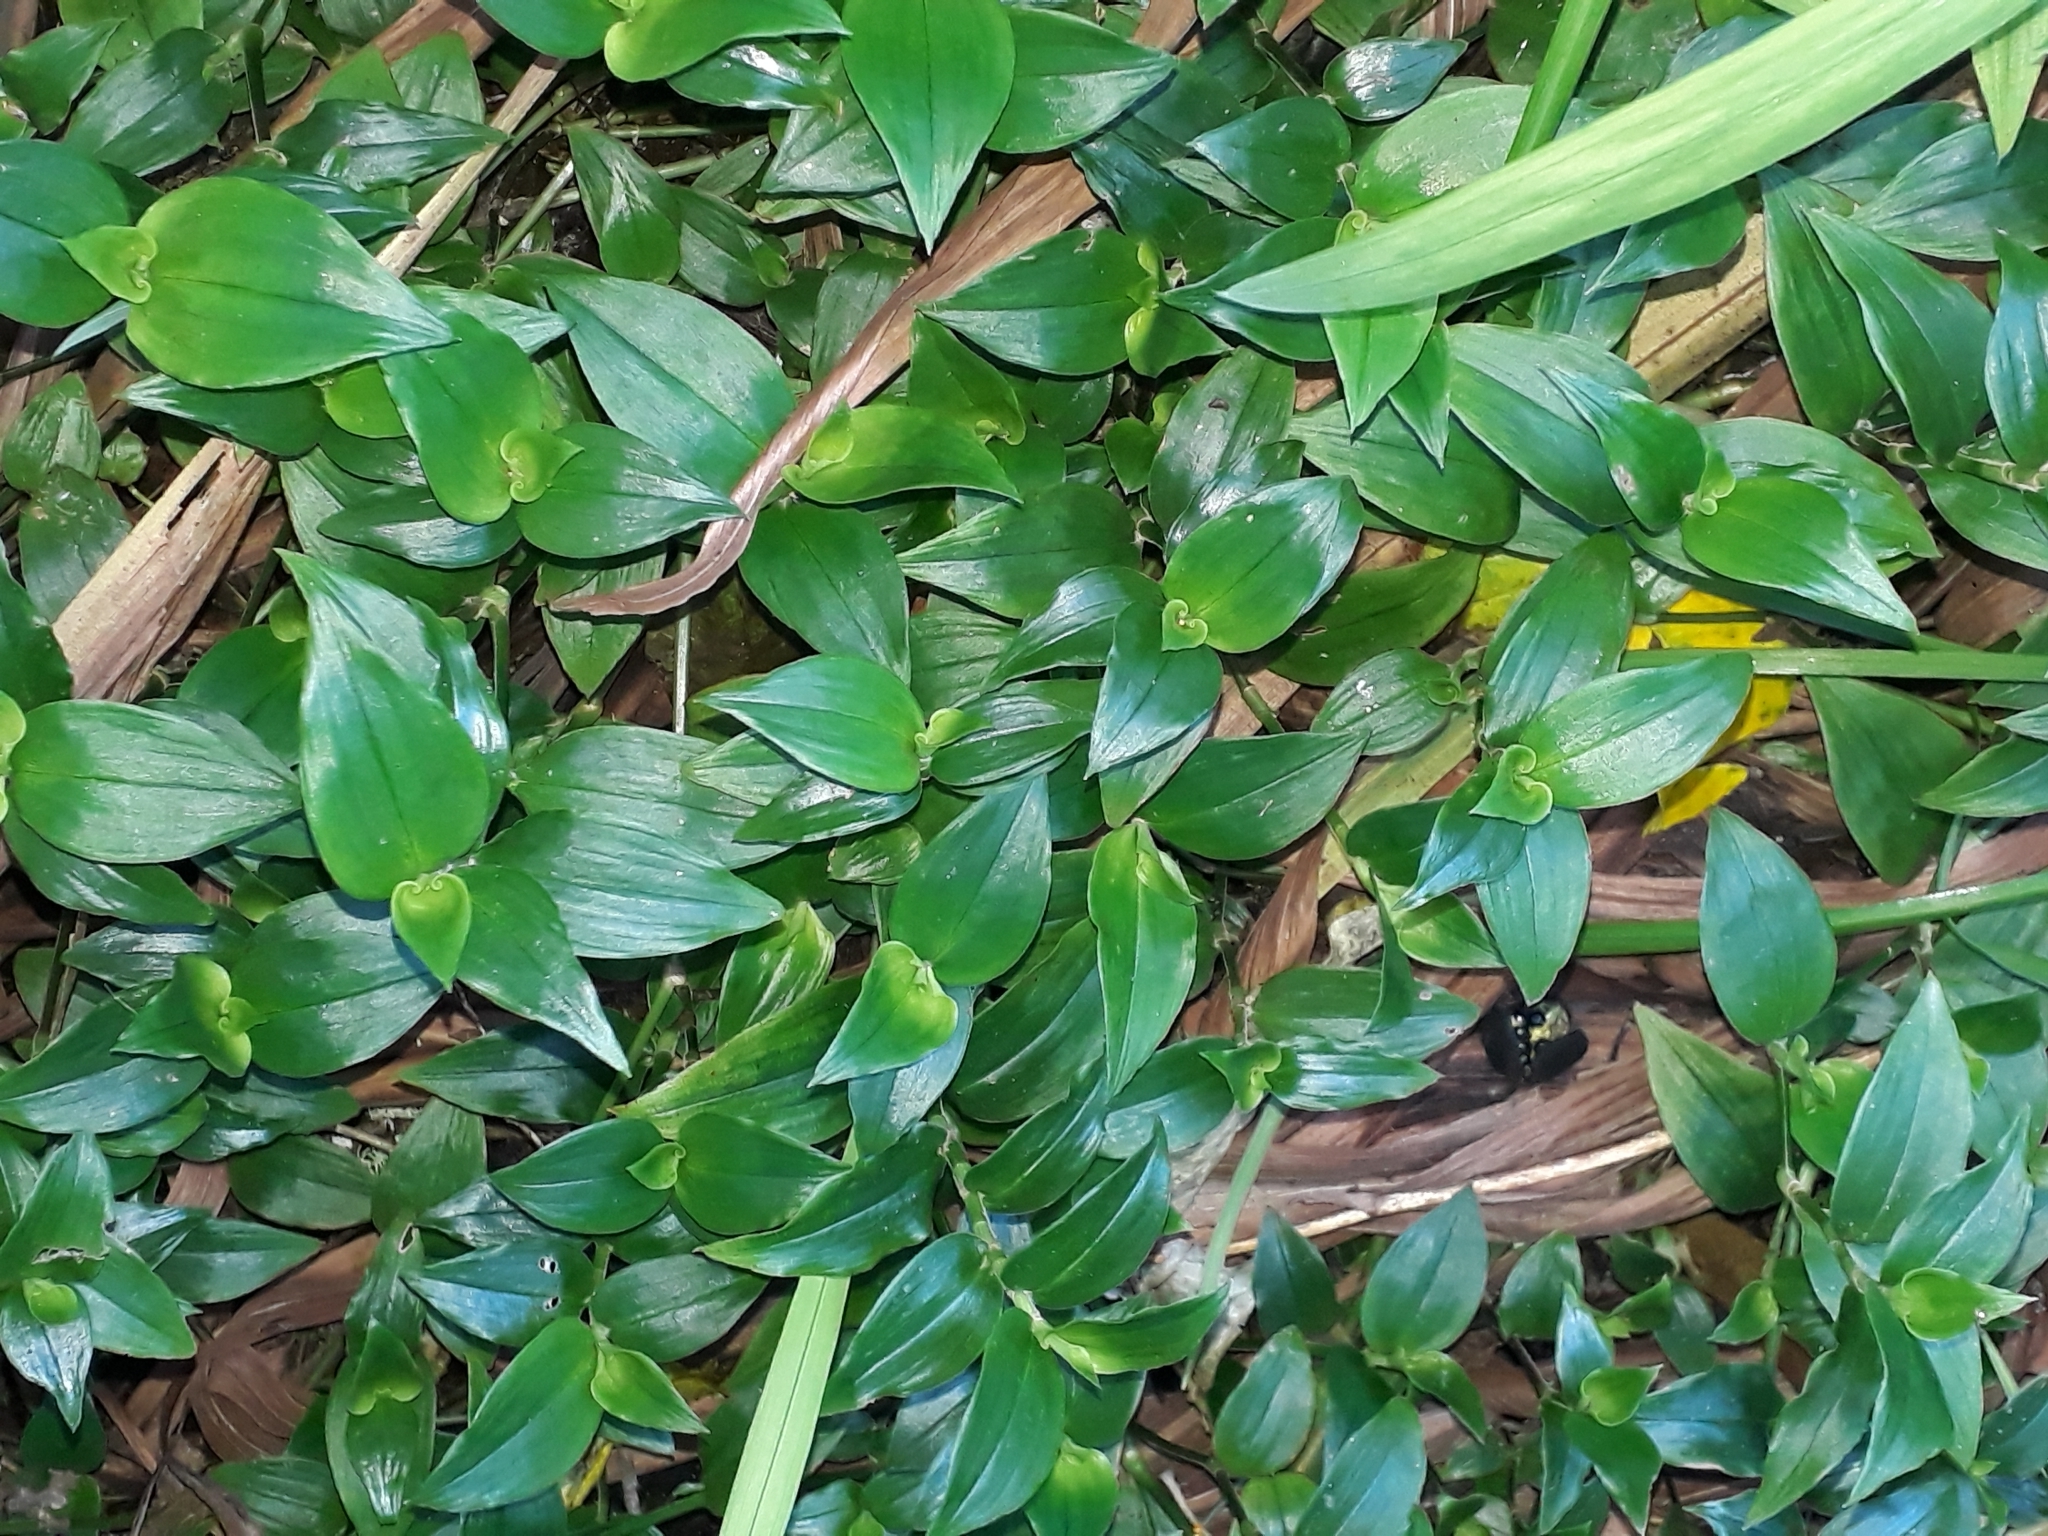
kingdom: Plantae
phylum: Tracheophyta
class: Liliopsida
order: Commelinales
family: Commelinaceae
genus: Tradescantia
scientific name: Tradescantia fluminensis
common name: Wandering-jew
